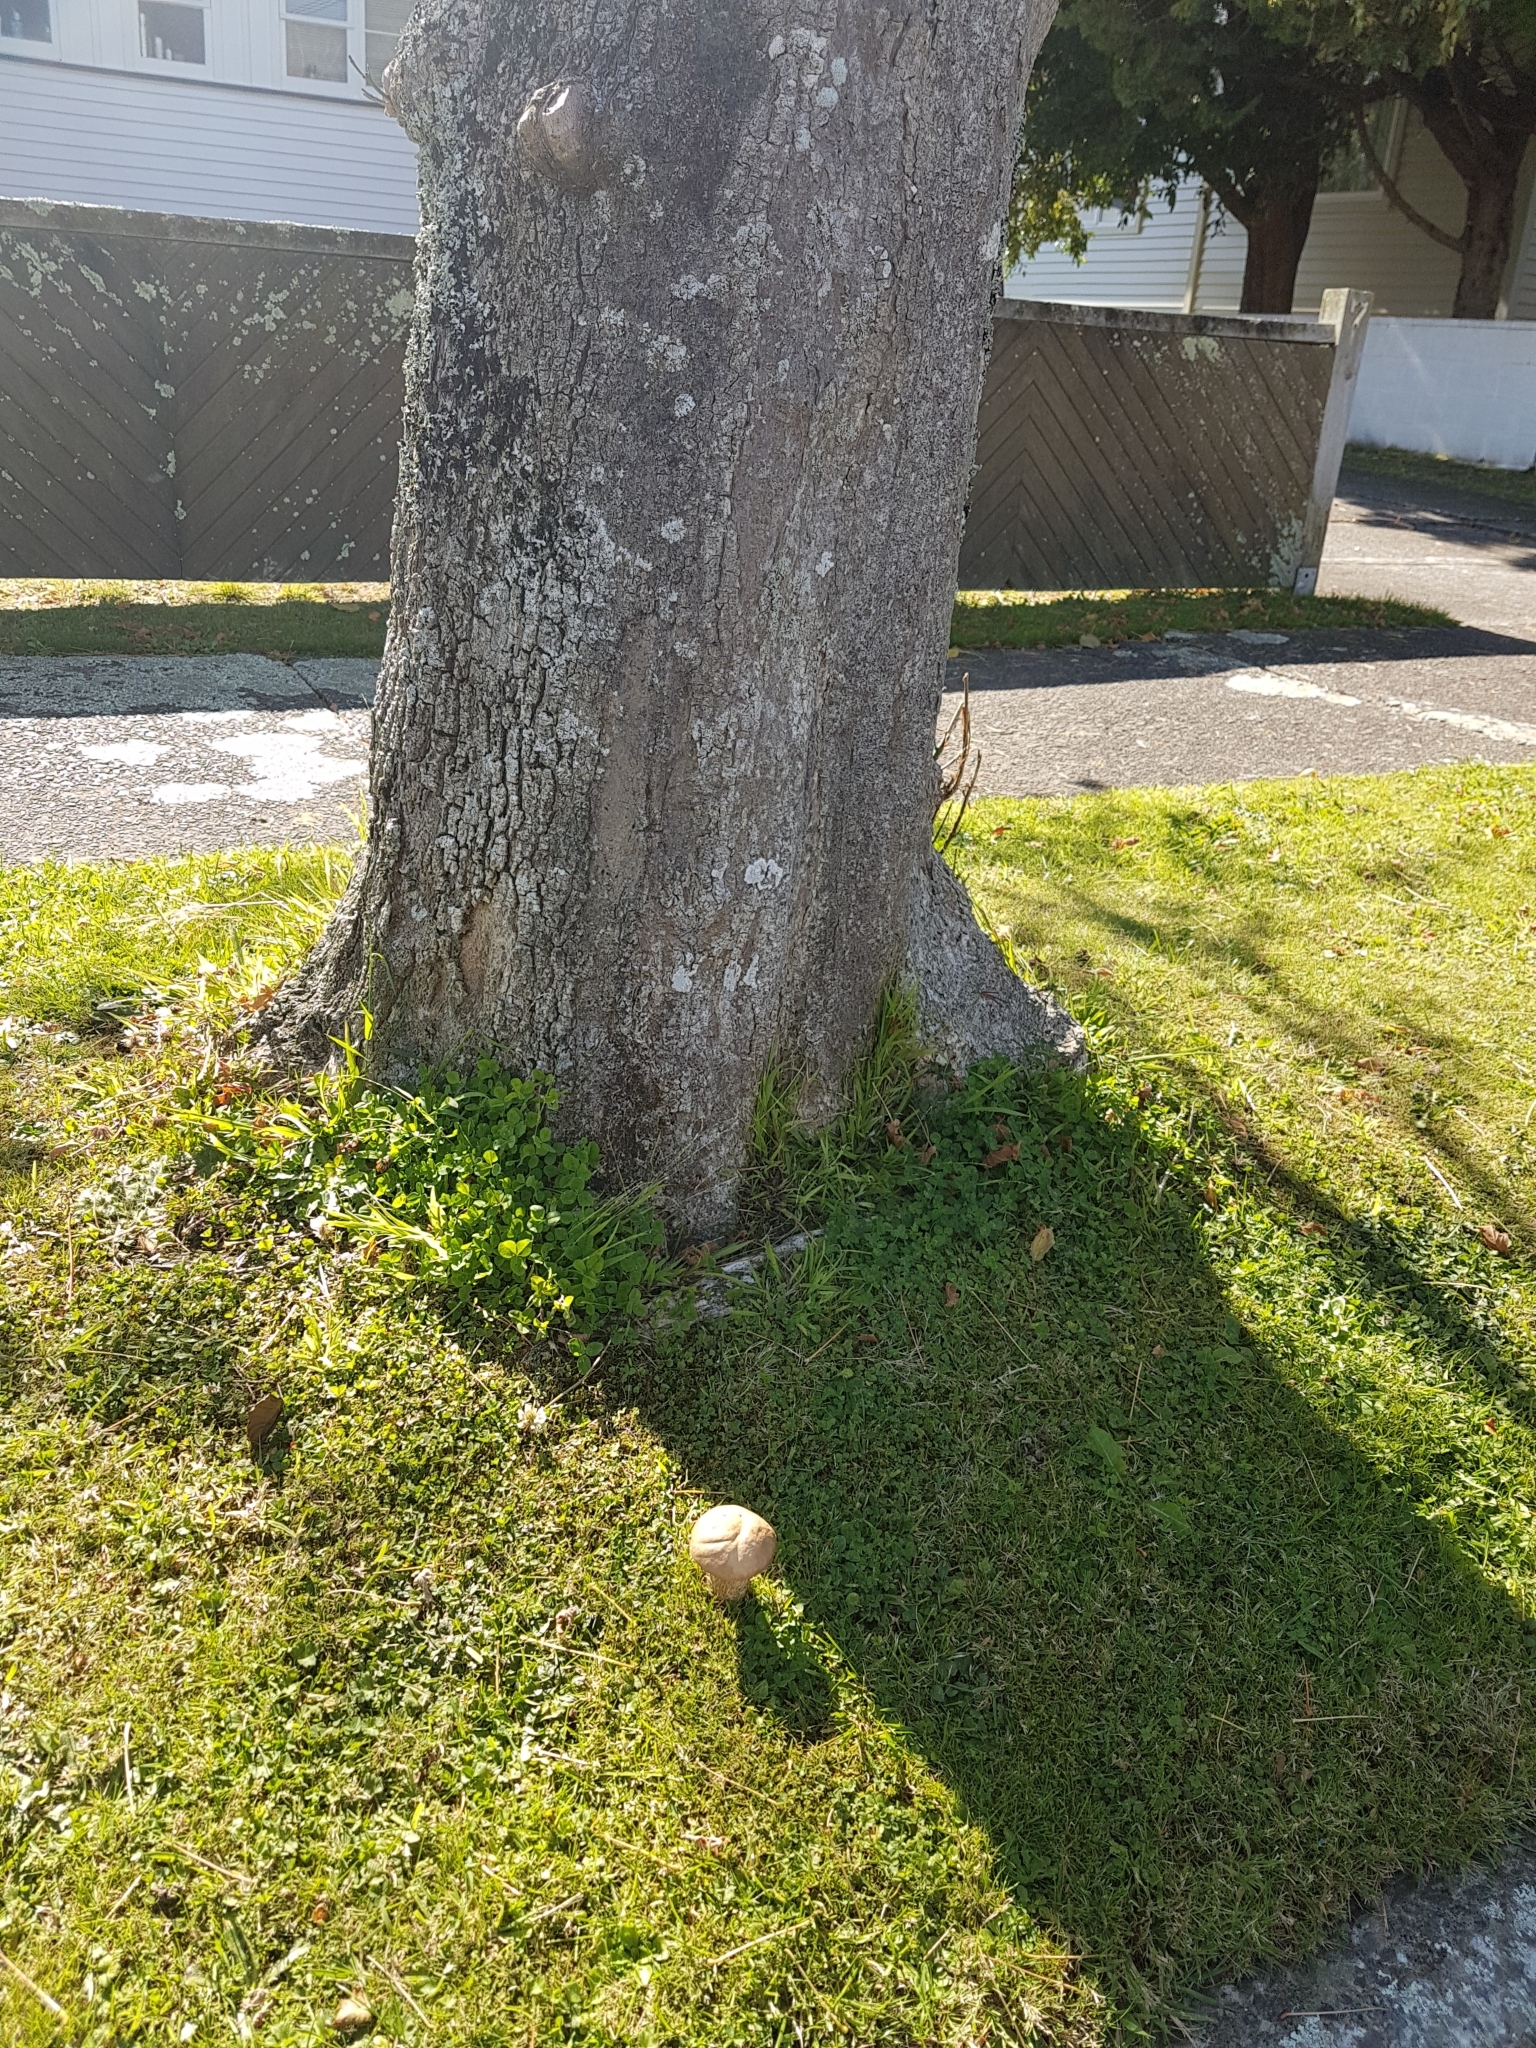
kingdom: Fungi
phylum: Basidiomycota
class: Agaricomycetes
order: Boletales
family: Boletaceae
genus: Leccinum
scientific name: Leccinum scabrum
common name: Blushing bolete
